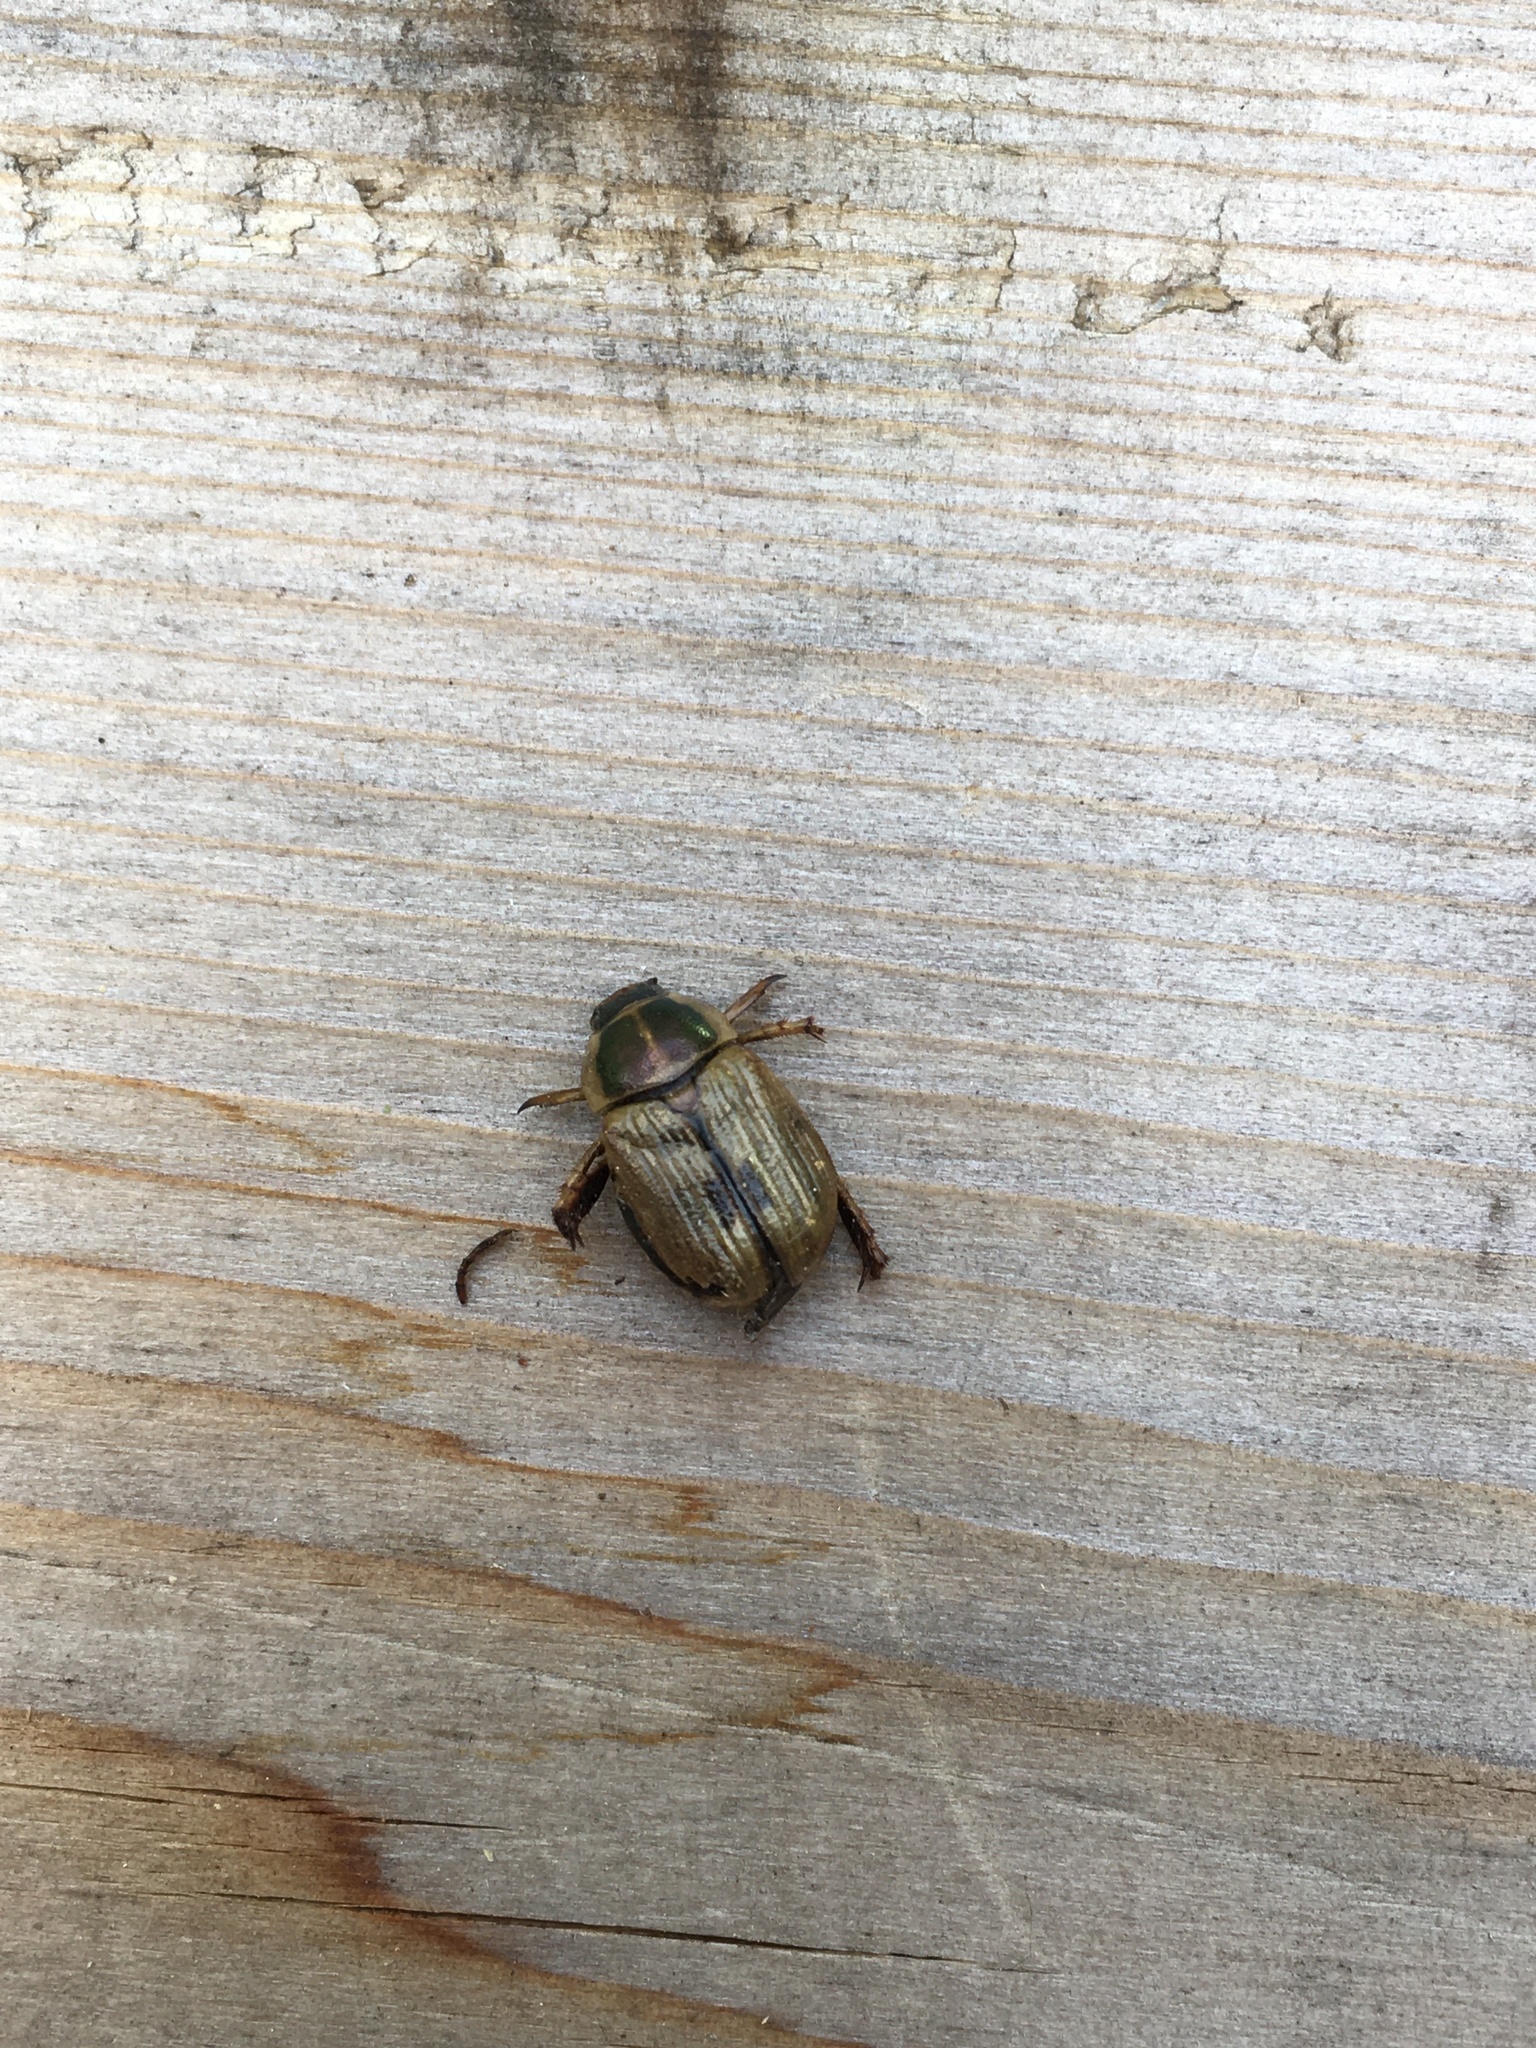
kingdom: Animalia
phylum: Arthropoda
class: Insecta
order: Coleoptera
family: Scarabaeidae
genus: Exomala
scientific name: Exomala orientalis
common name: Oriental beetle
